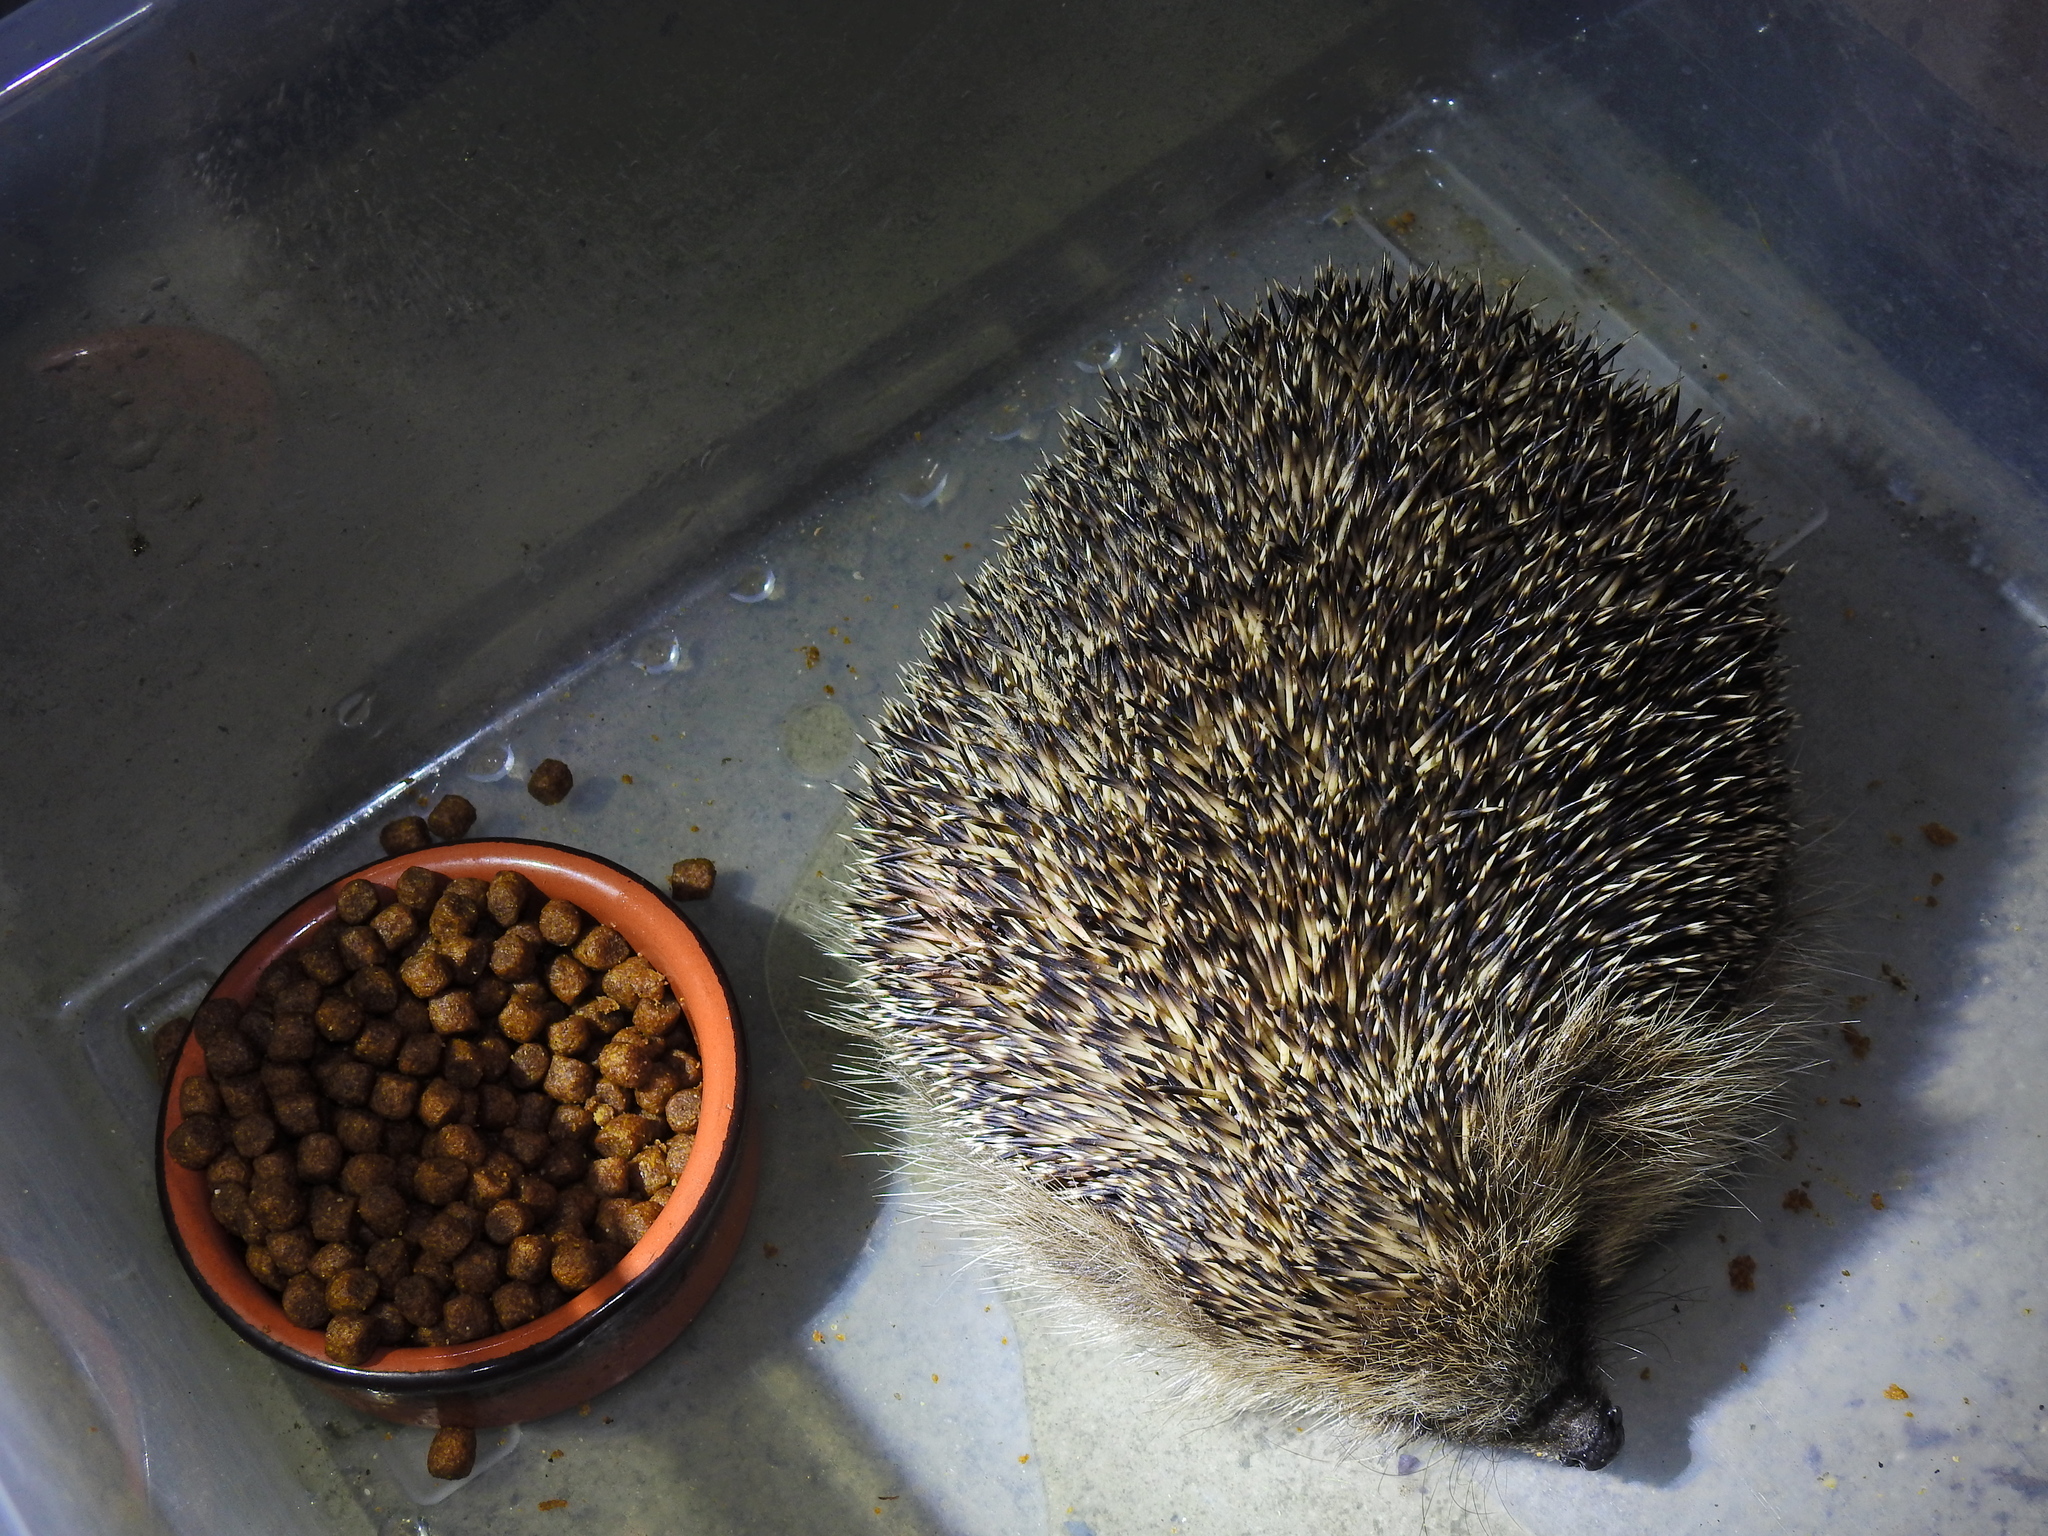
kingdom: Animalia
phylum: Chordata
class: Mammalia
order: Erinaceomorpha
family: Erinaceidae
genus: Erinaceus
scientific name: Erinaceus europaeus
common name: West european hedgehog
